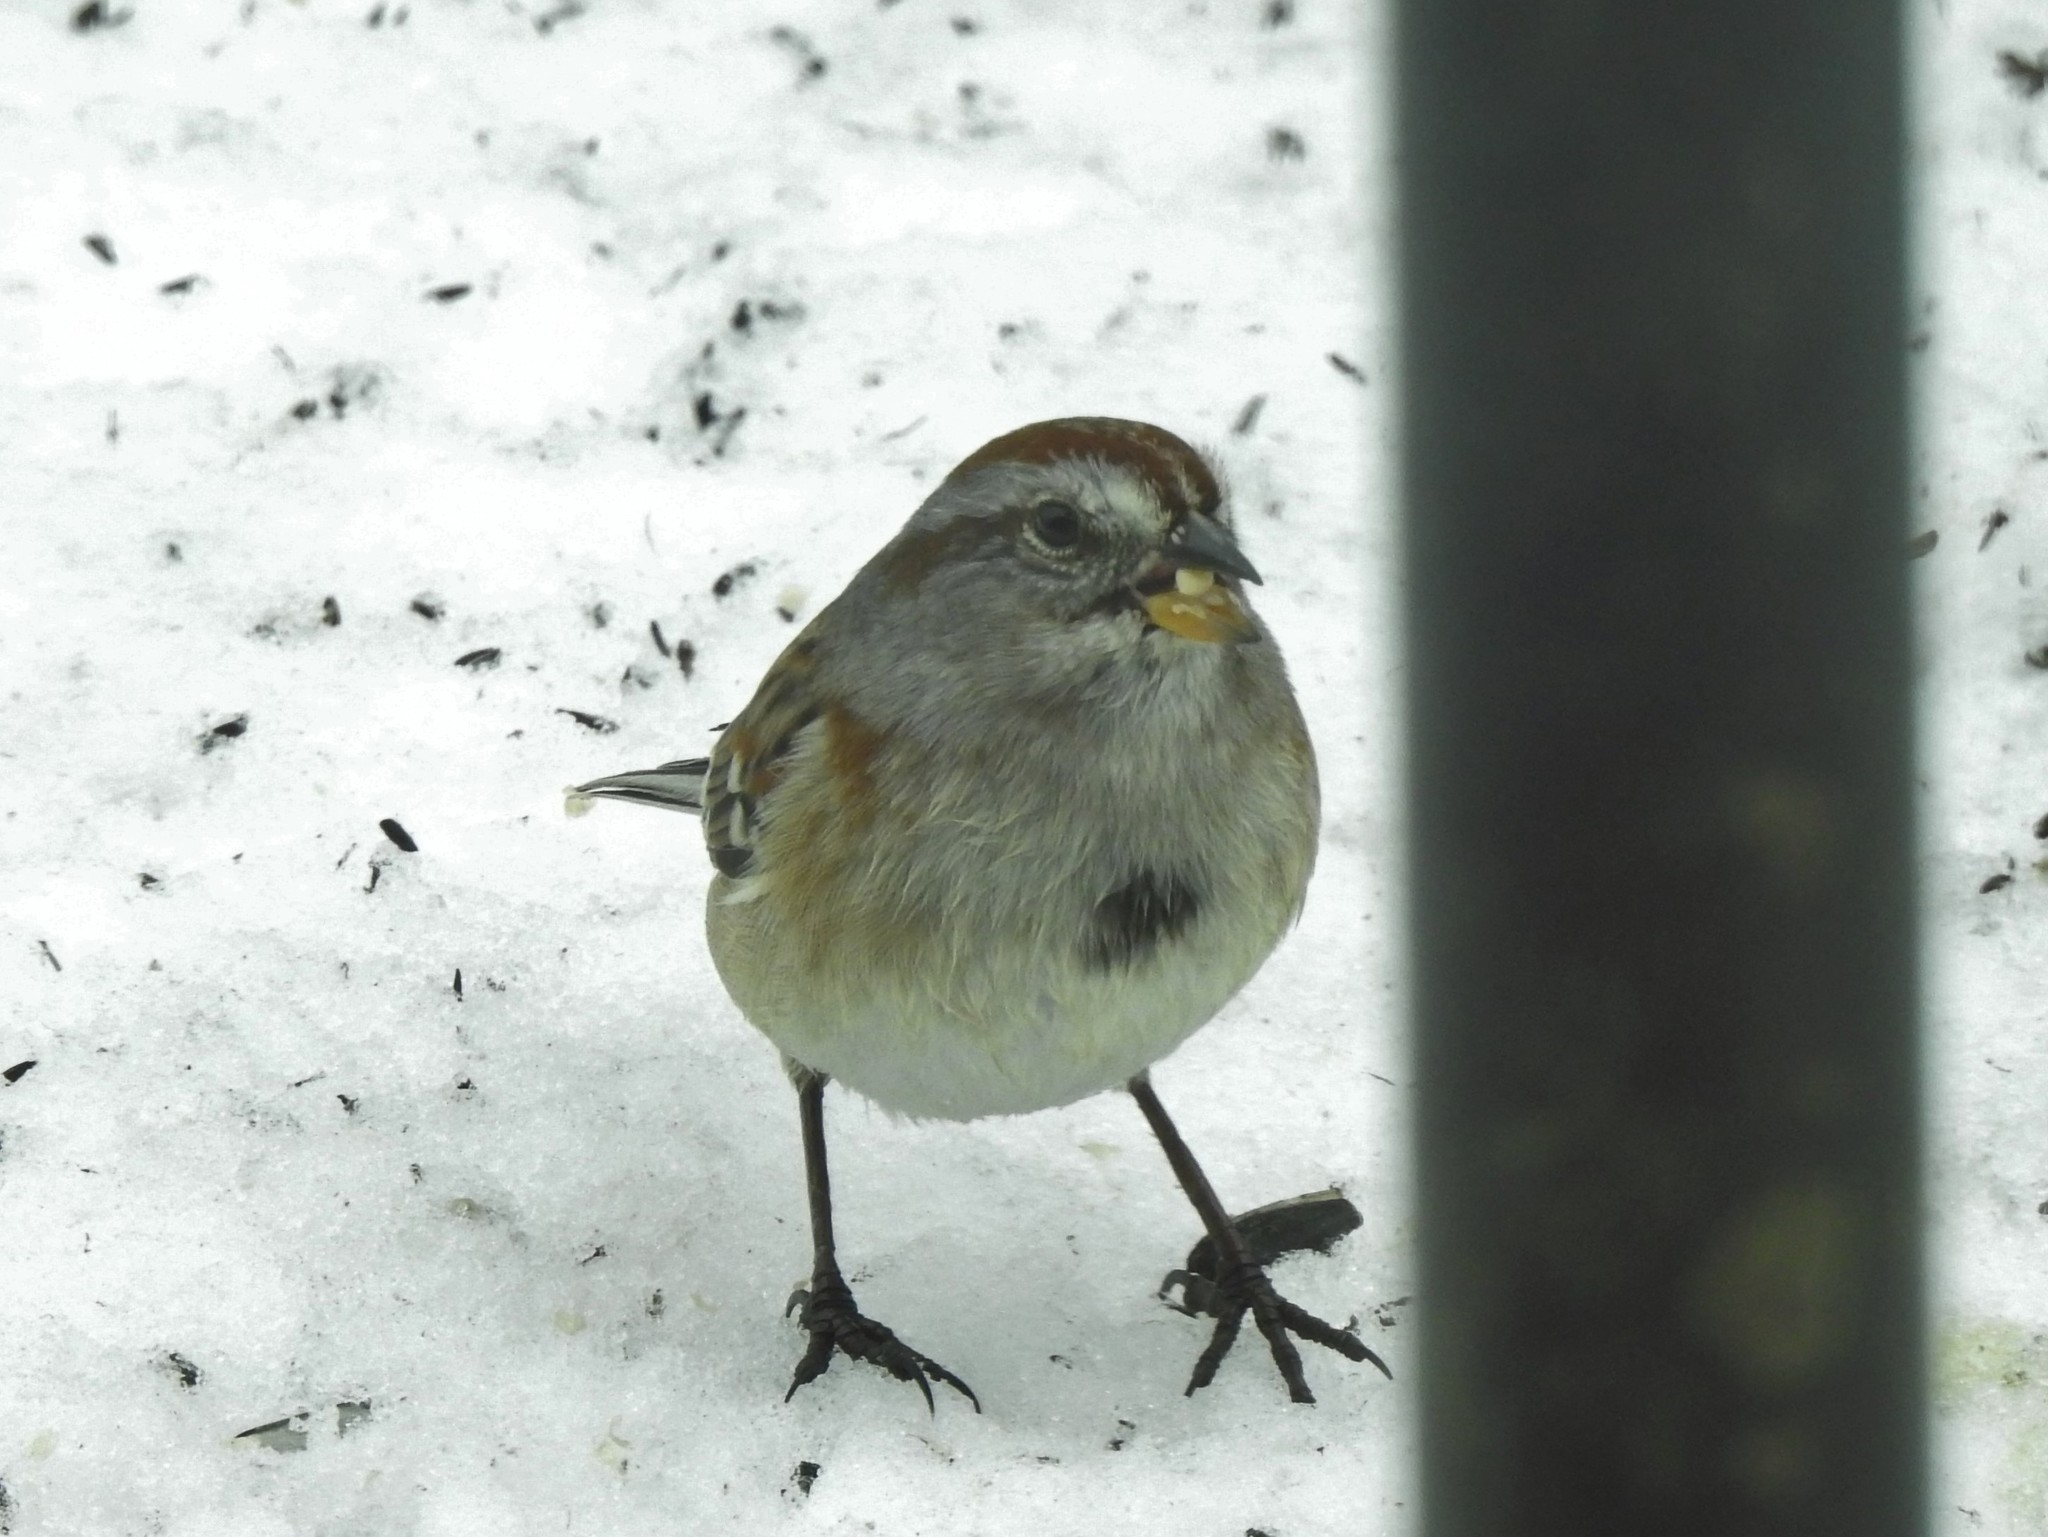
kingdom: Animalia
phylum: Chordata
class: Aves
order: Passeriformes
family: Passerellidae
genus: Spizelloides
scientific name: Spizelloides arborea
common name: American tree sparrow
